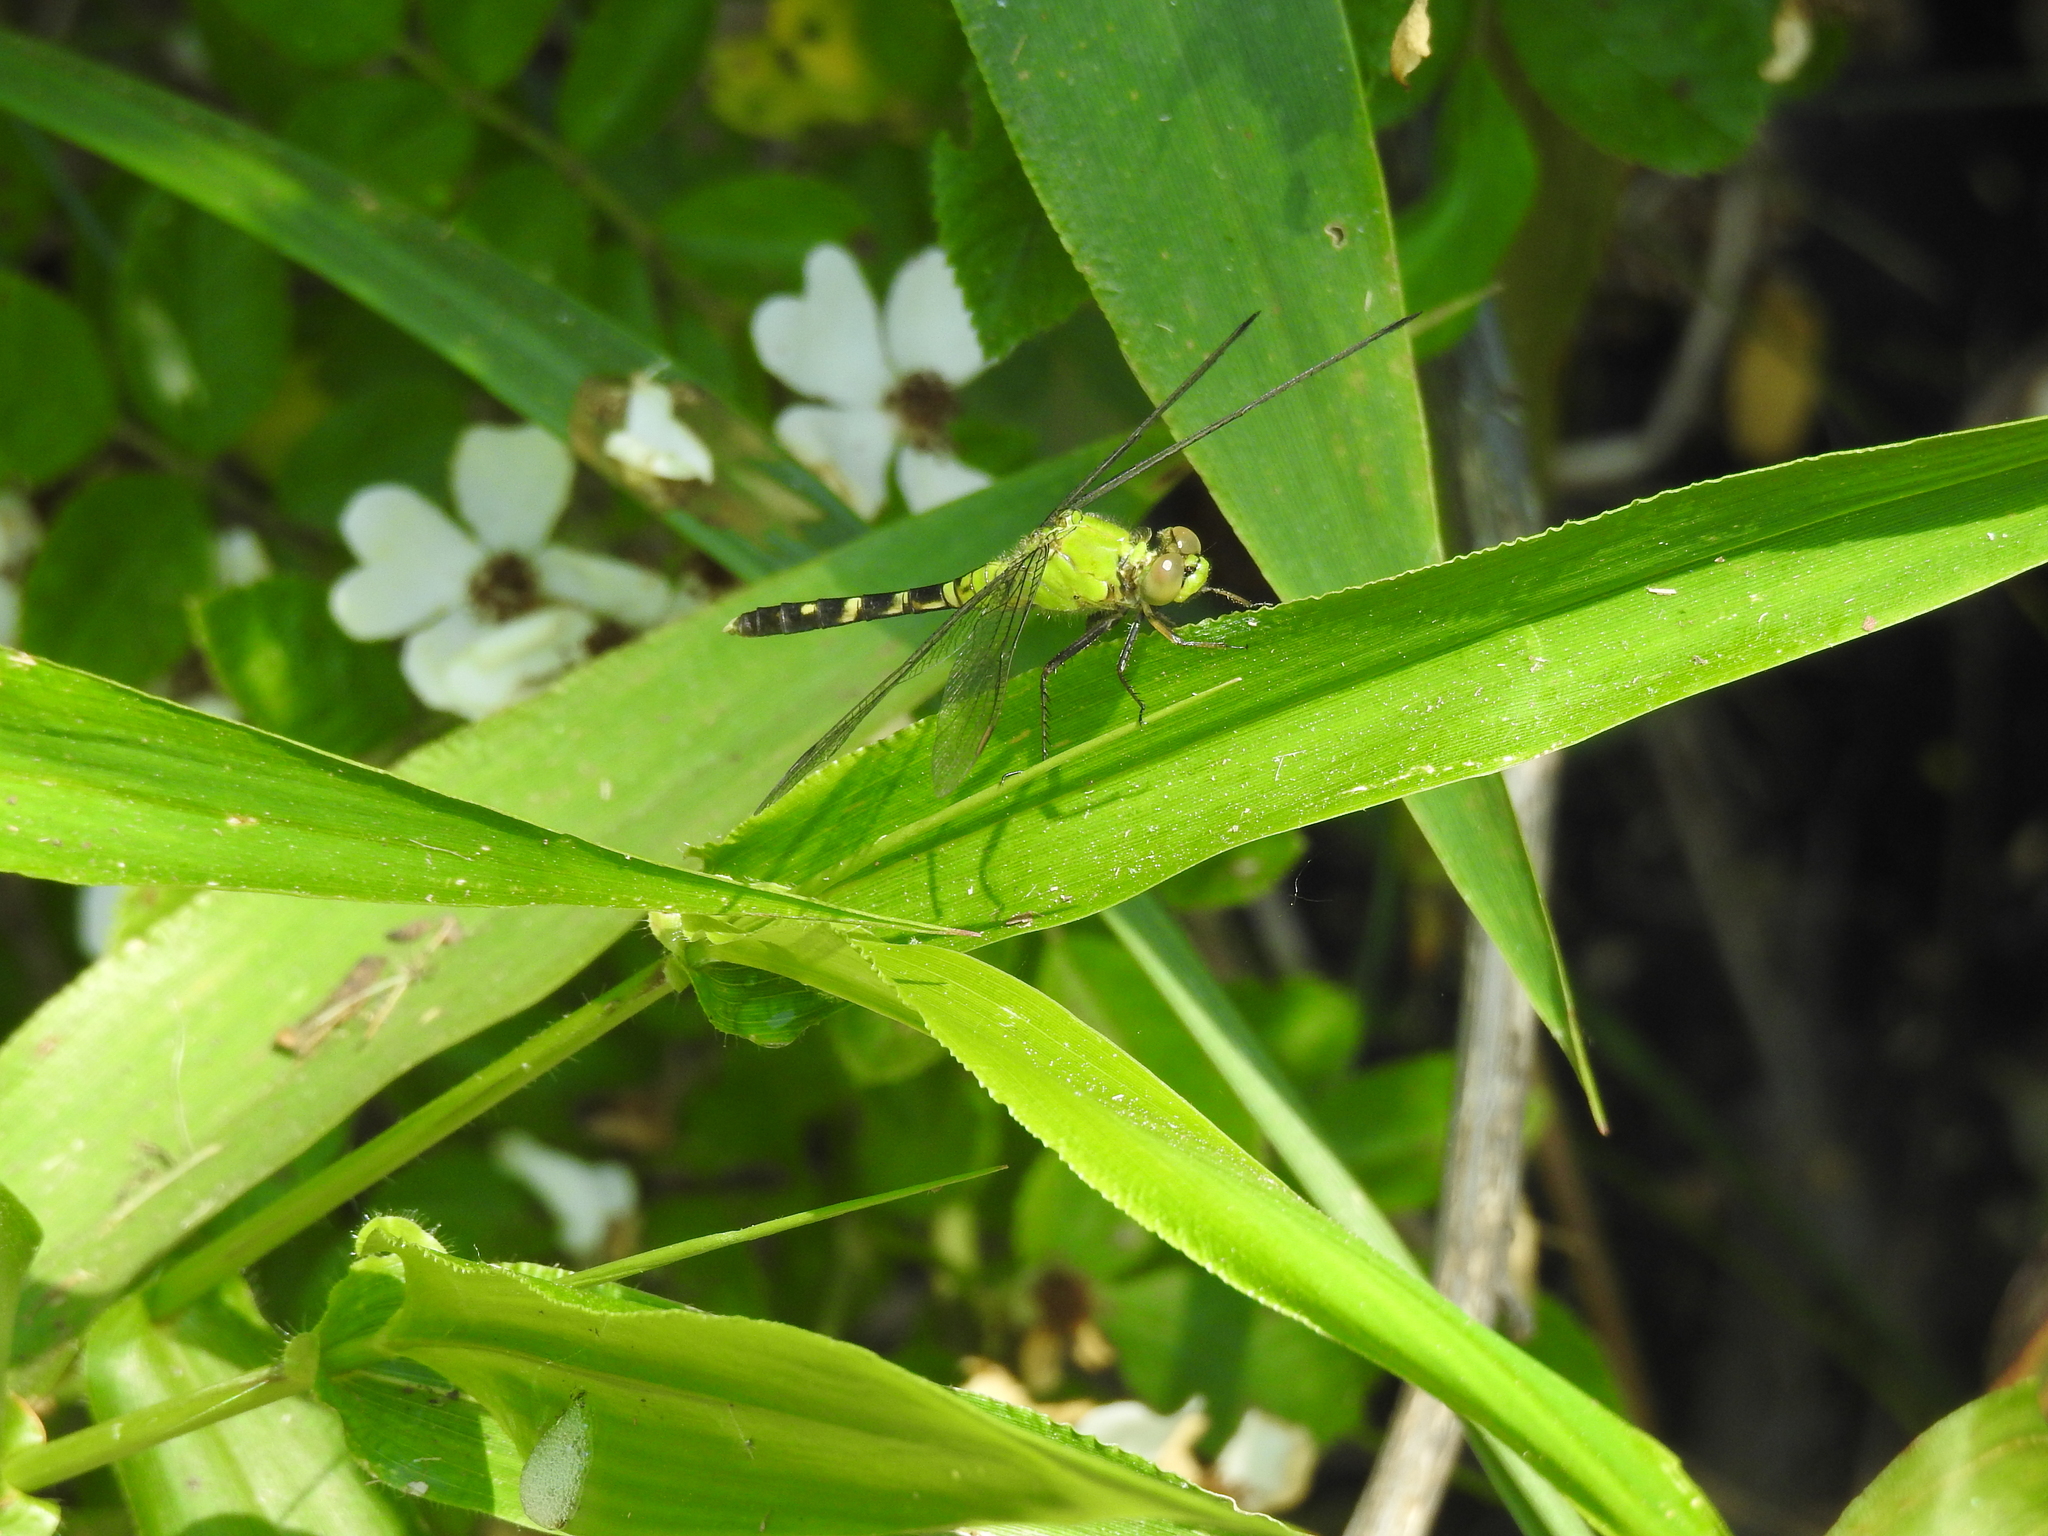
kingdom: Animalia
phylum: Arthropoda
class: Insecta
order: Odonata
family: Libellulidae
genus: Erythemis
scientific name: Erythemis simplicicollis
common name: Eastern pondhawk
